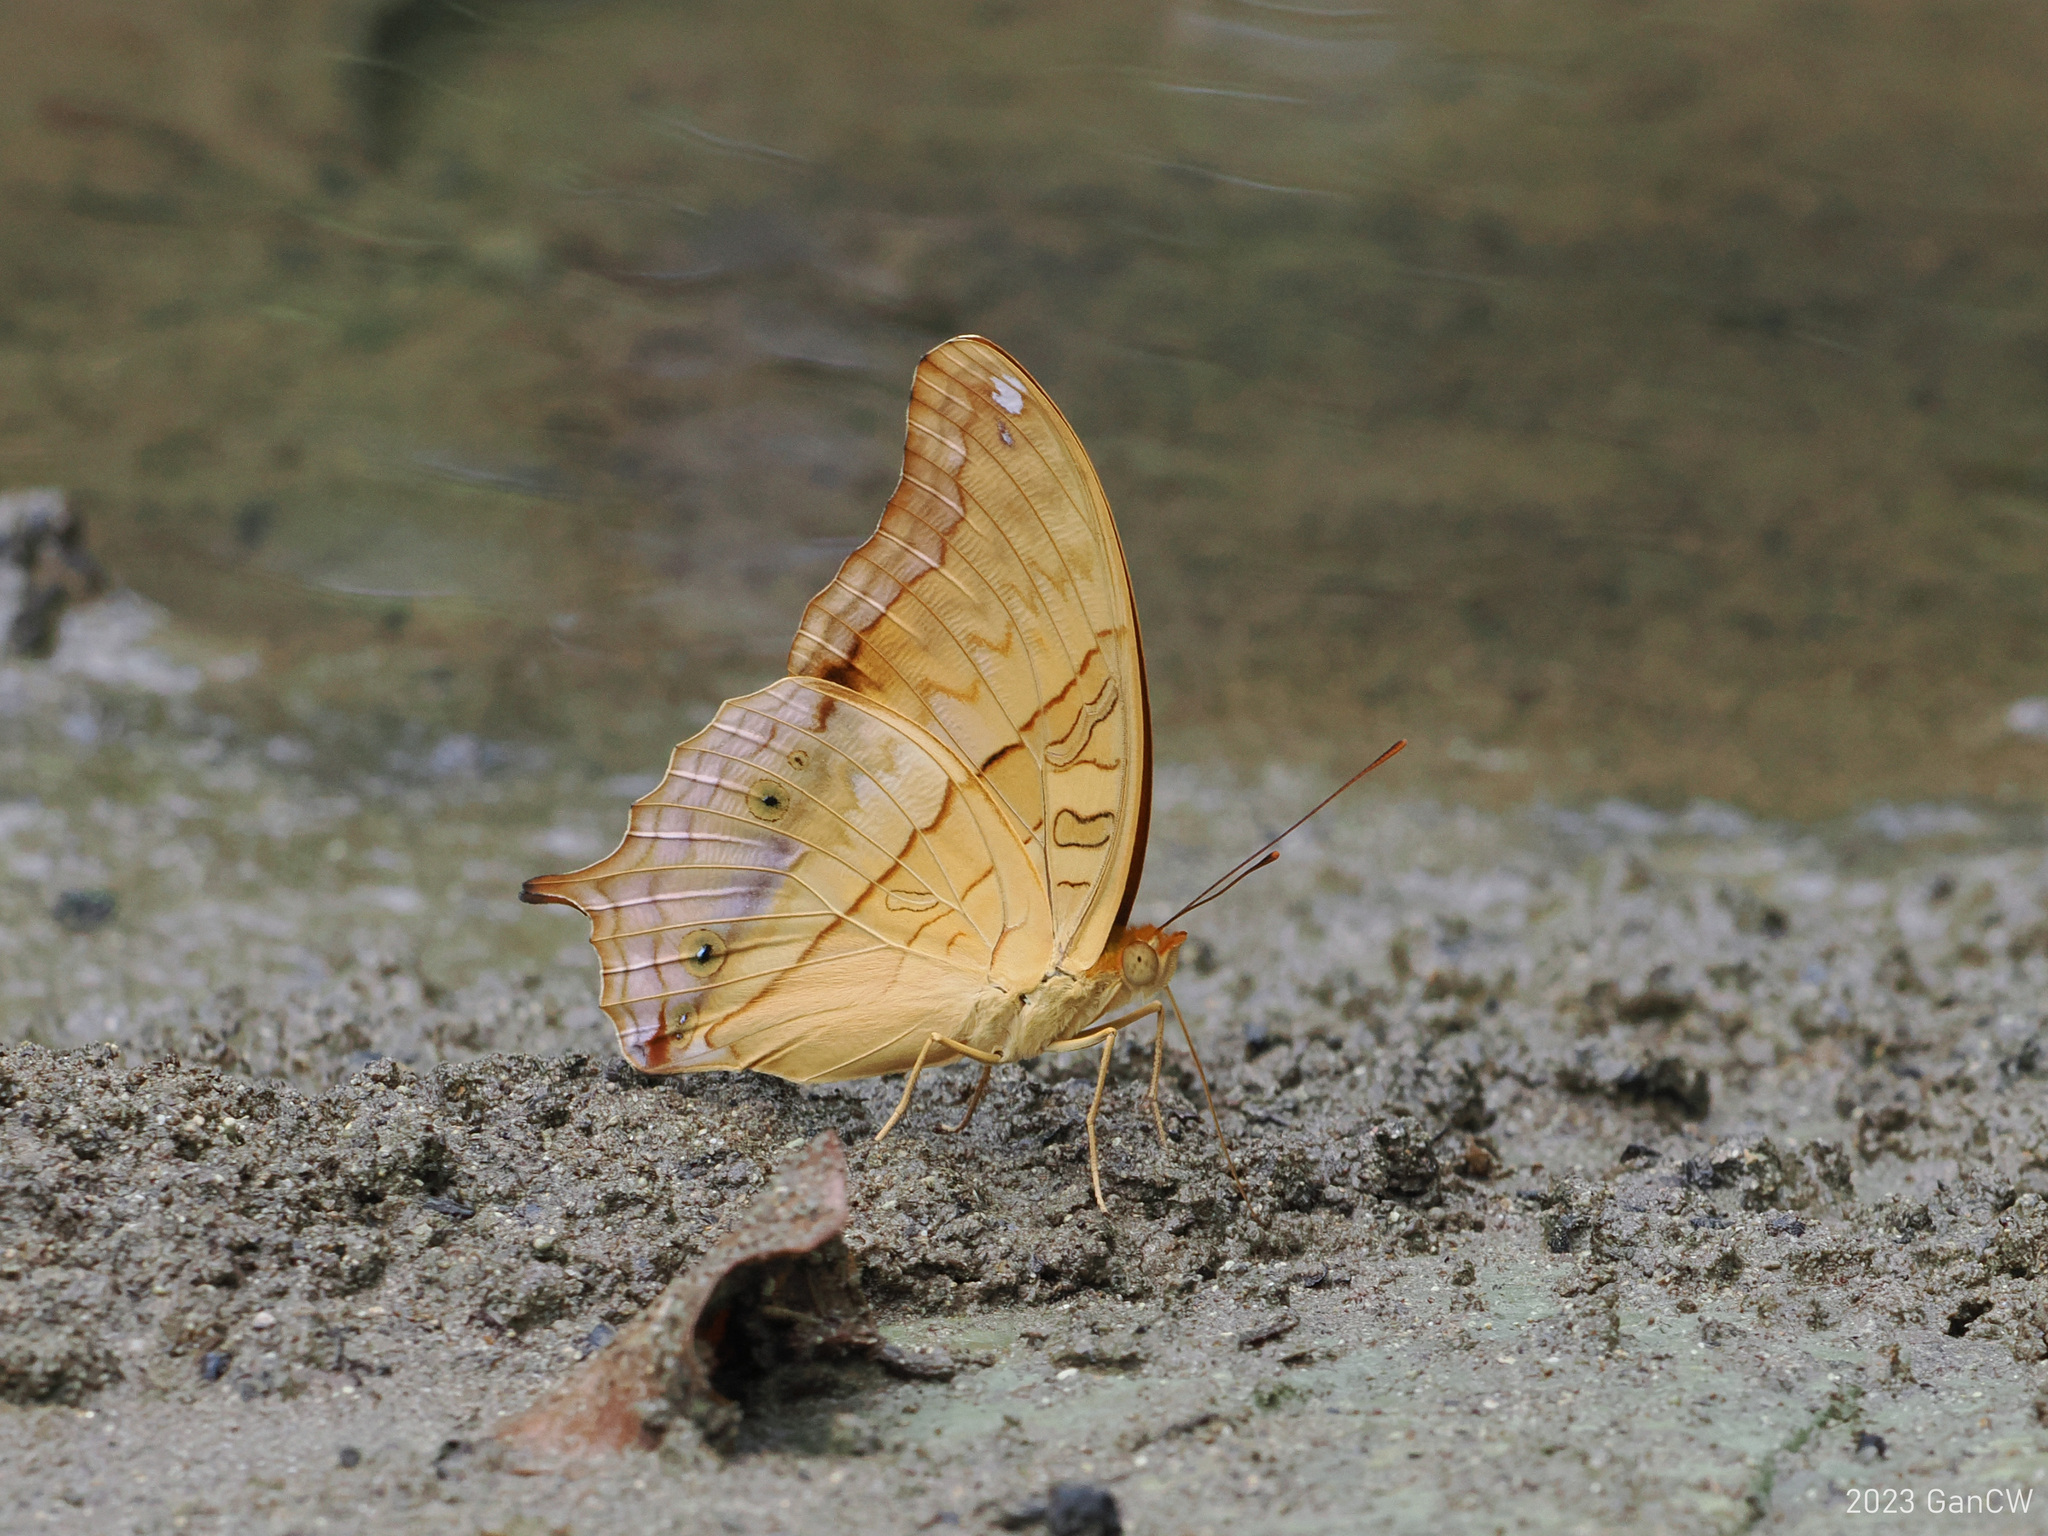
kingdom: Animalia
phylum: Arthropoda
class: Insecta
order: Lepidoptera
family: Nymphalidae
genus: Vindula
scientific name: Vindula deione
